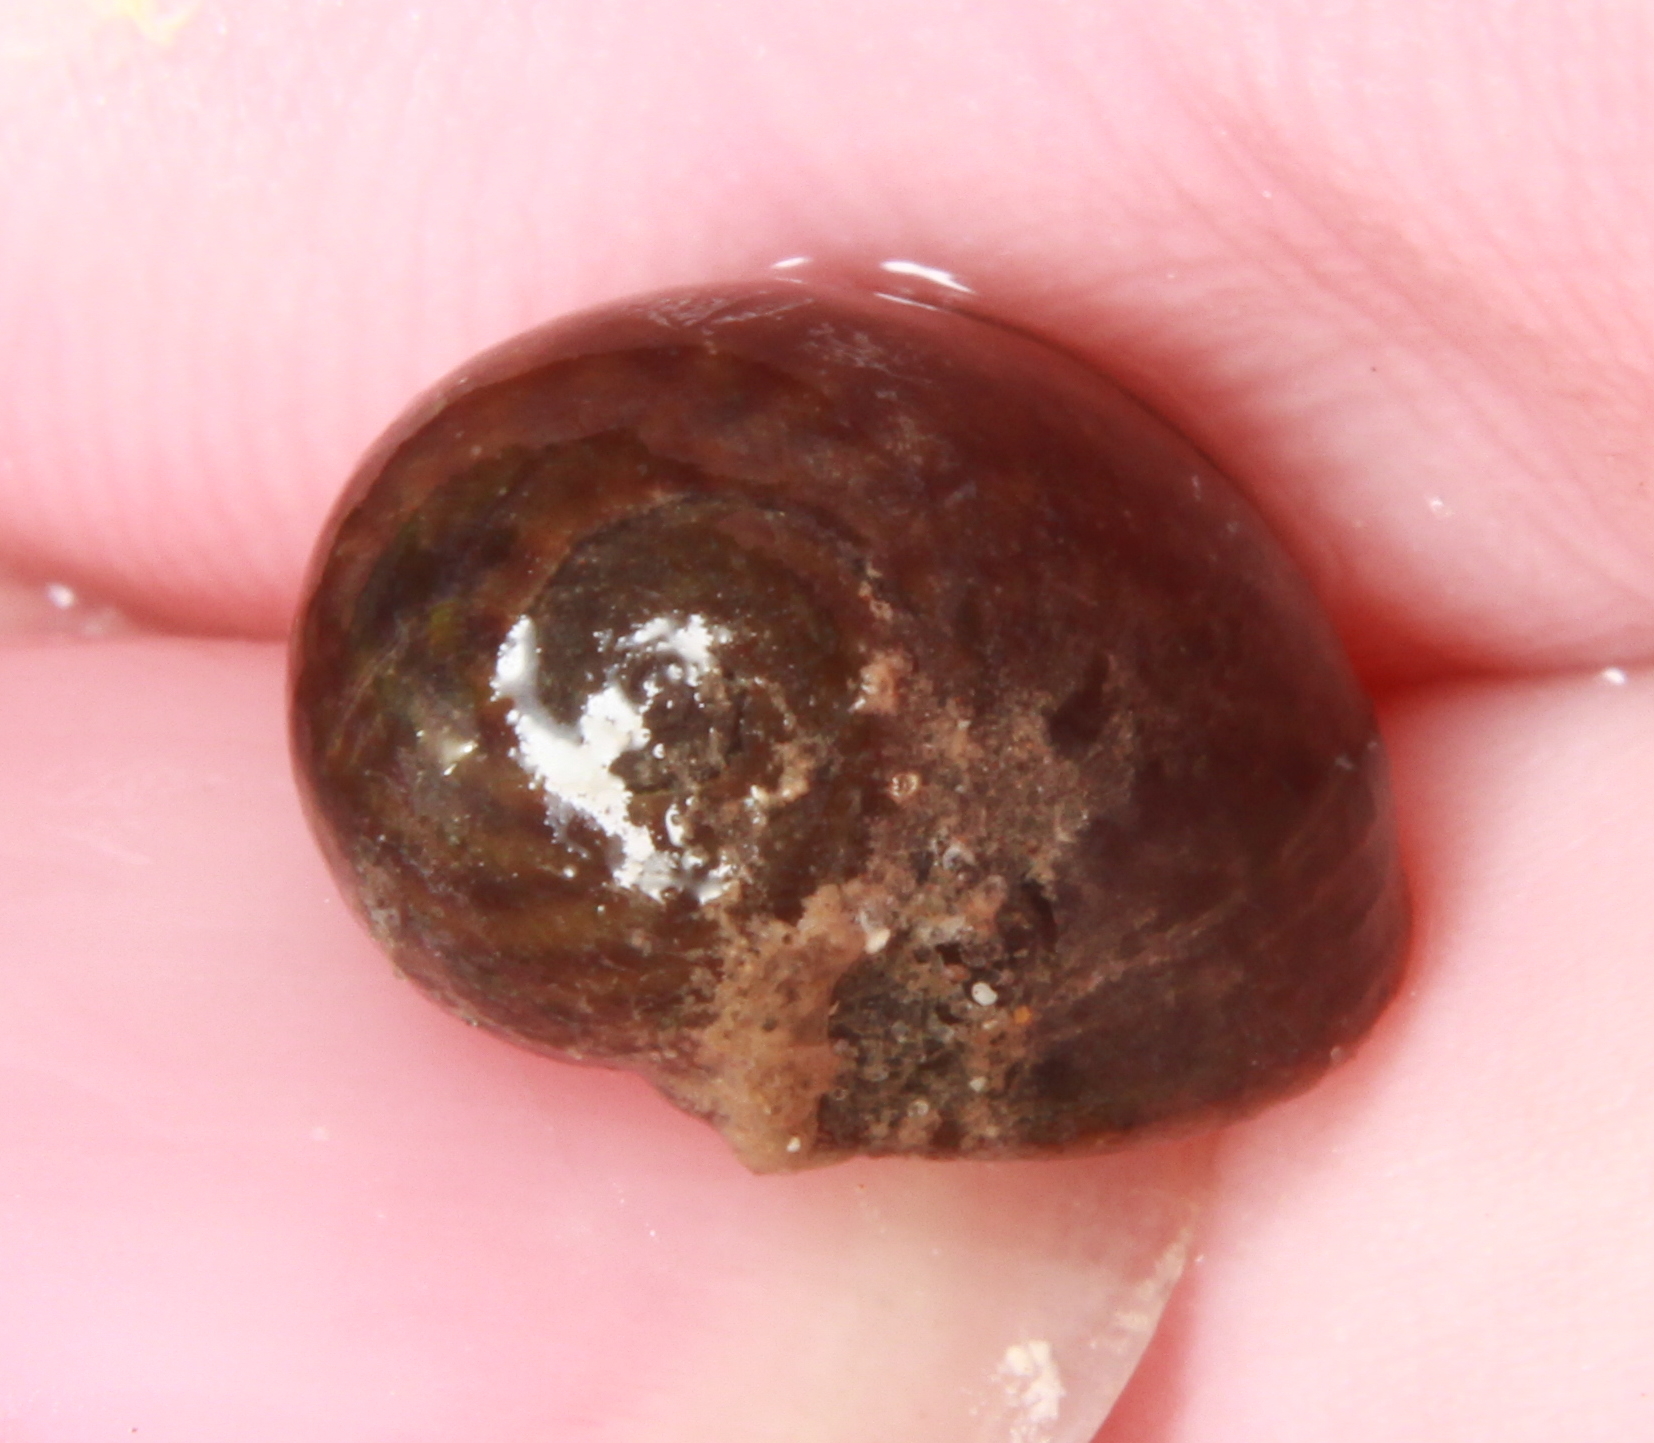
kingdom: Animalia
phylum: Mollusca
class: Gastropoda
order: Littorinimorpha
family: Littorinidae
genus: Littorina
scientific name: Littorina
